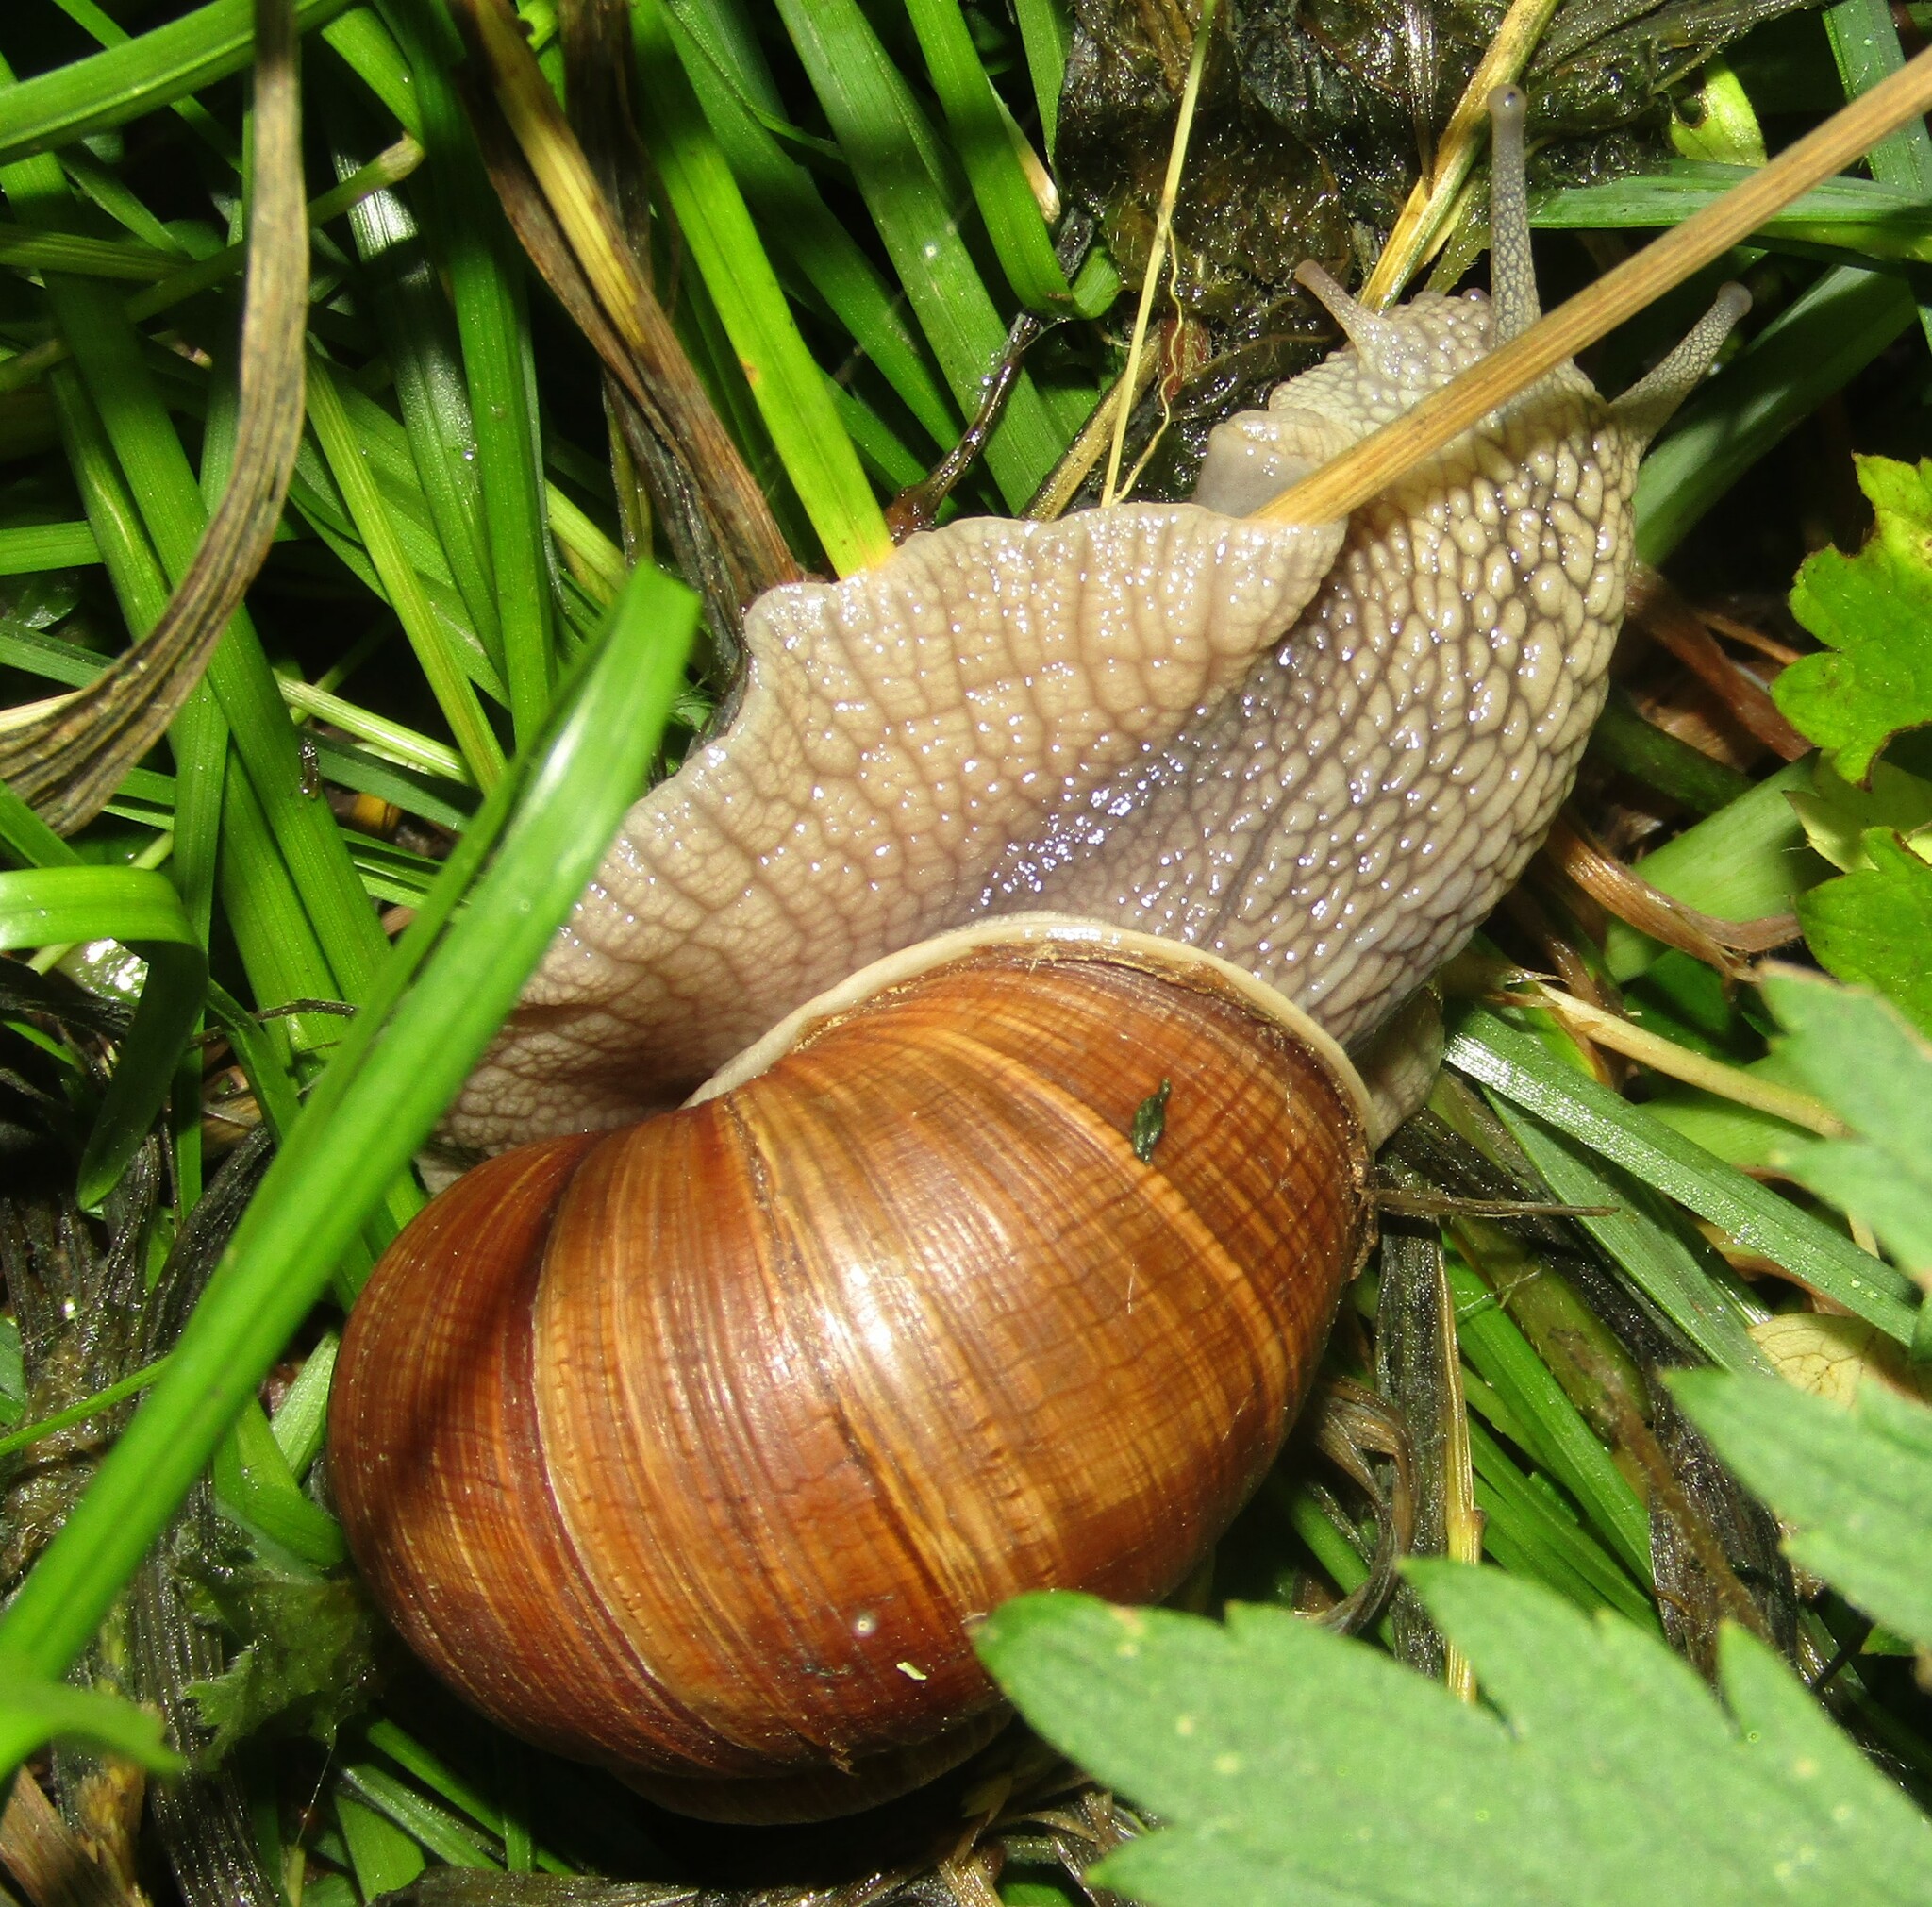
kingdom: Animalia
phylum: Mollusca
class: Gastropoda
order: Stylommatophora
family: Helicidae
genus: Helix
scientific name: Helix pomatia
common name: Roman snail
